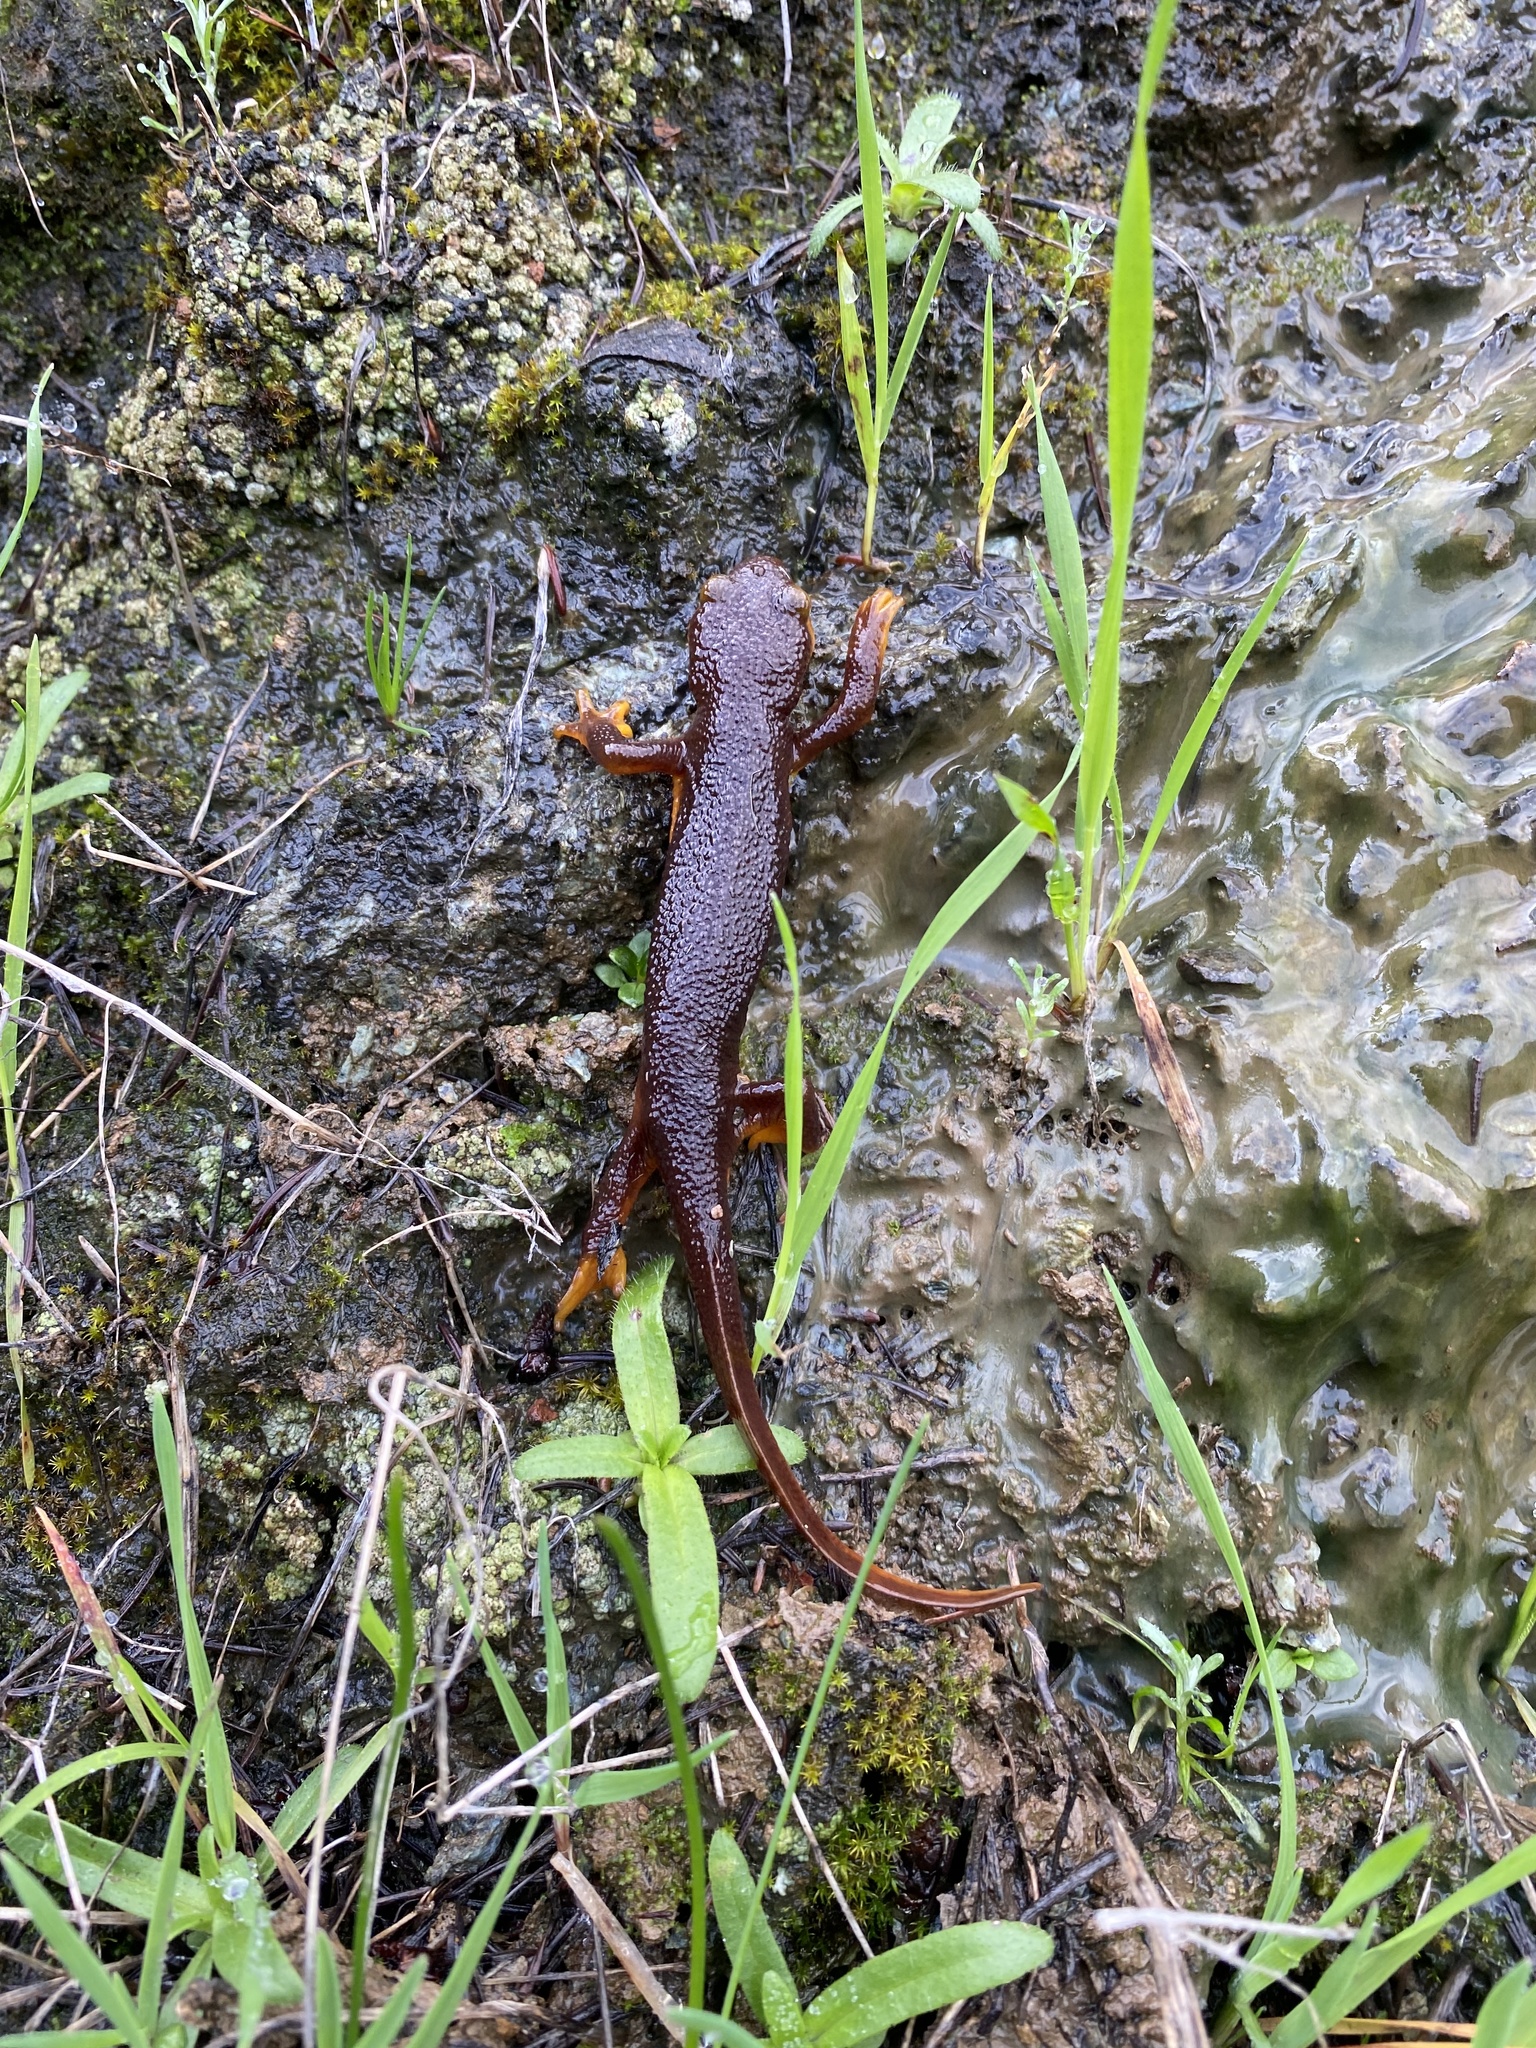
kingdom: Animalia
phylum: Chordata
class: Amphibia
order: Caudata
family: Salamandridae
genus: Taricha
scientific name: Taricha torosa
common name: California newt
